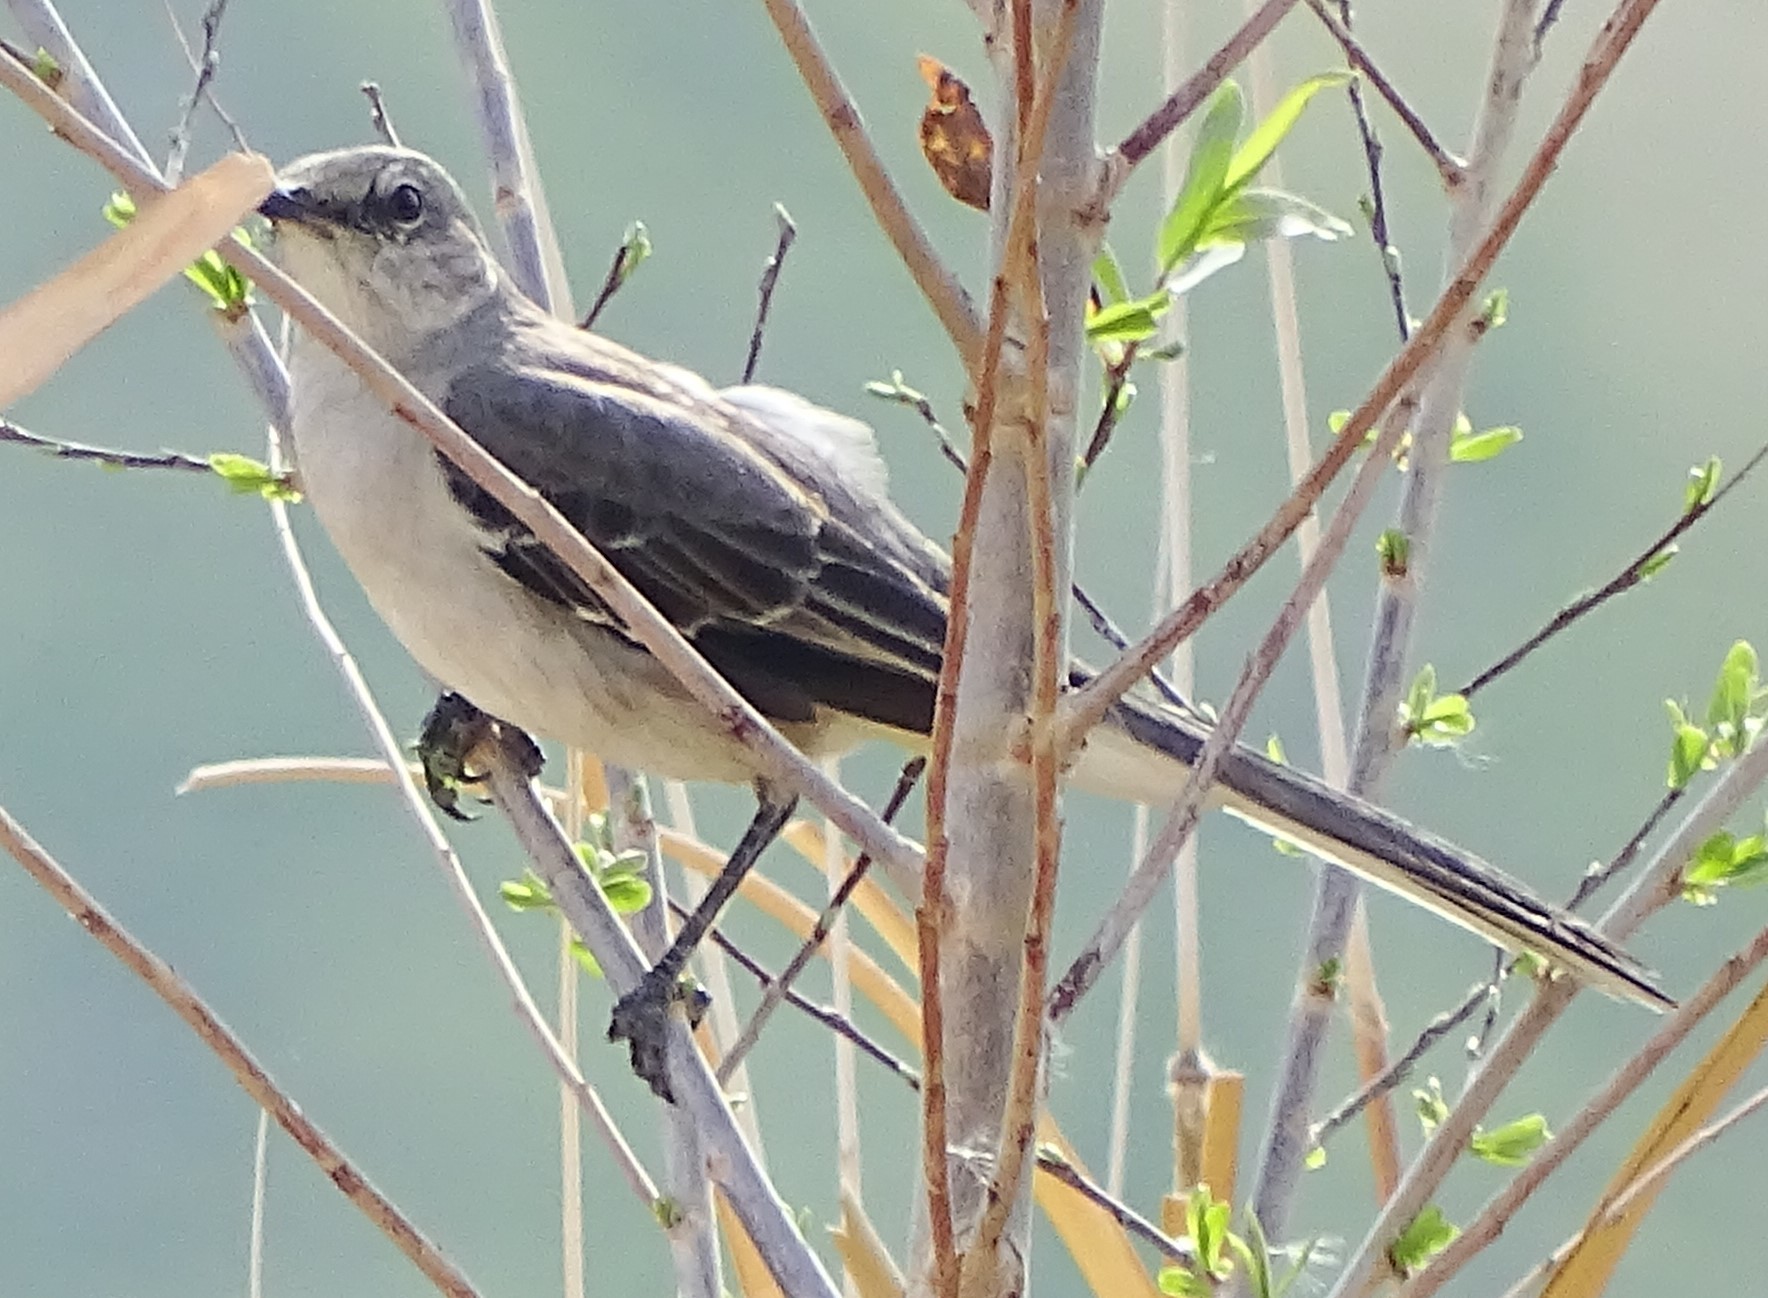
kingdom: Animalia
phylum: Chordata
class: Aves
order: Passeriformes
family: Mimidae
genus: Mimus
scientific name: Mimus polyglottos
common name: Northern mockingbird
